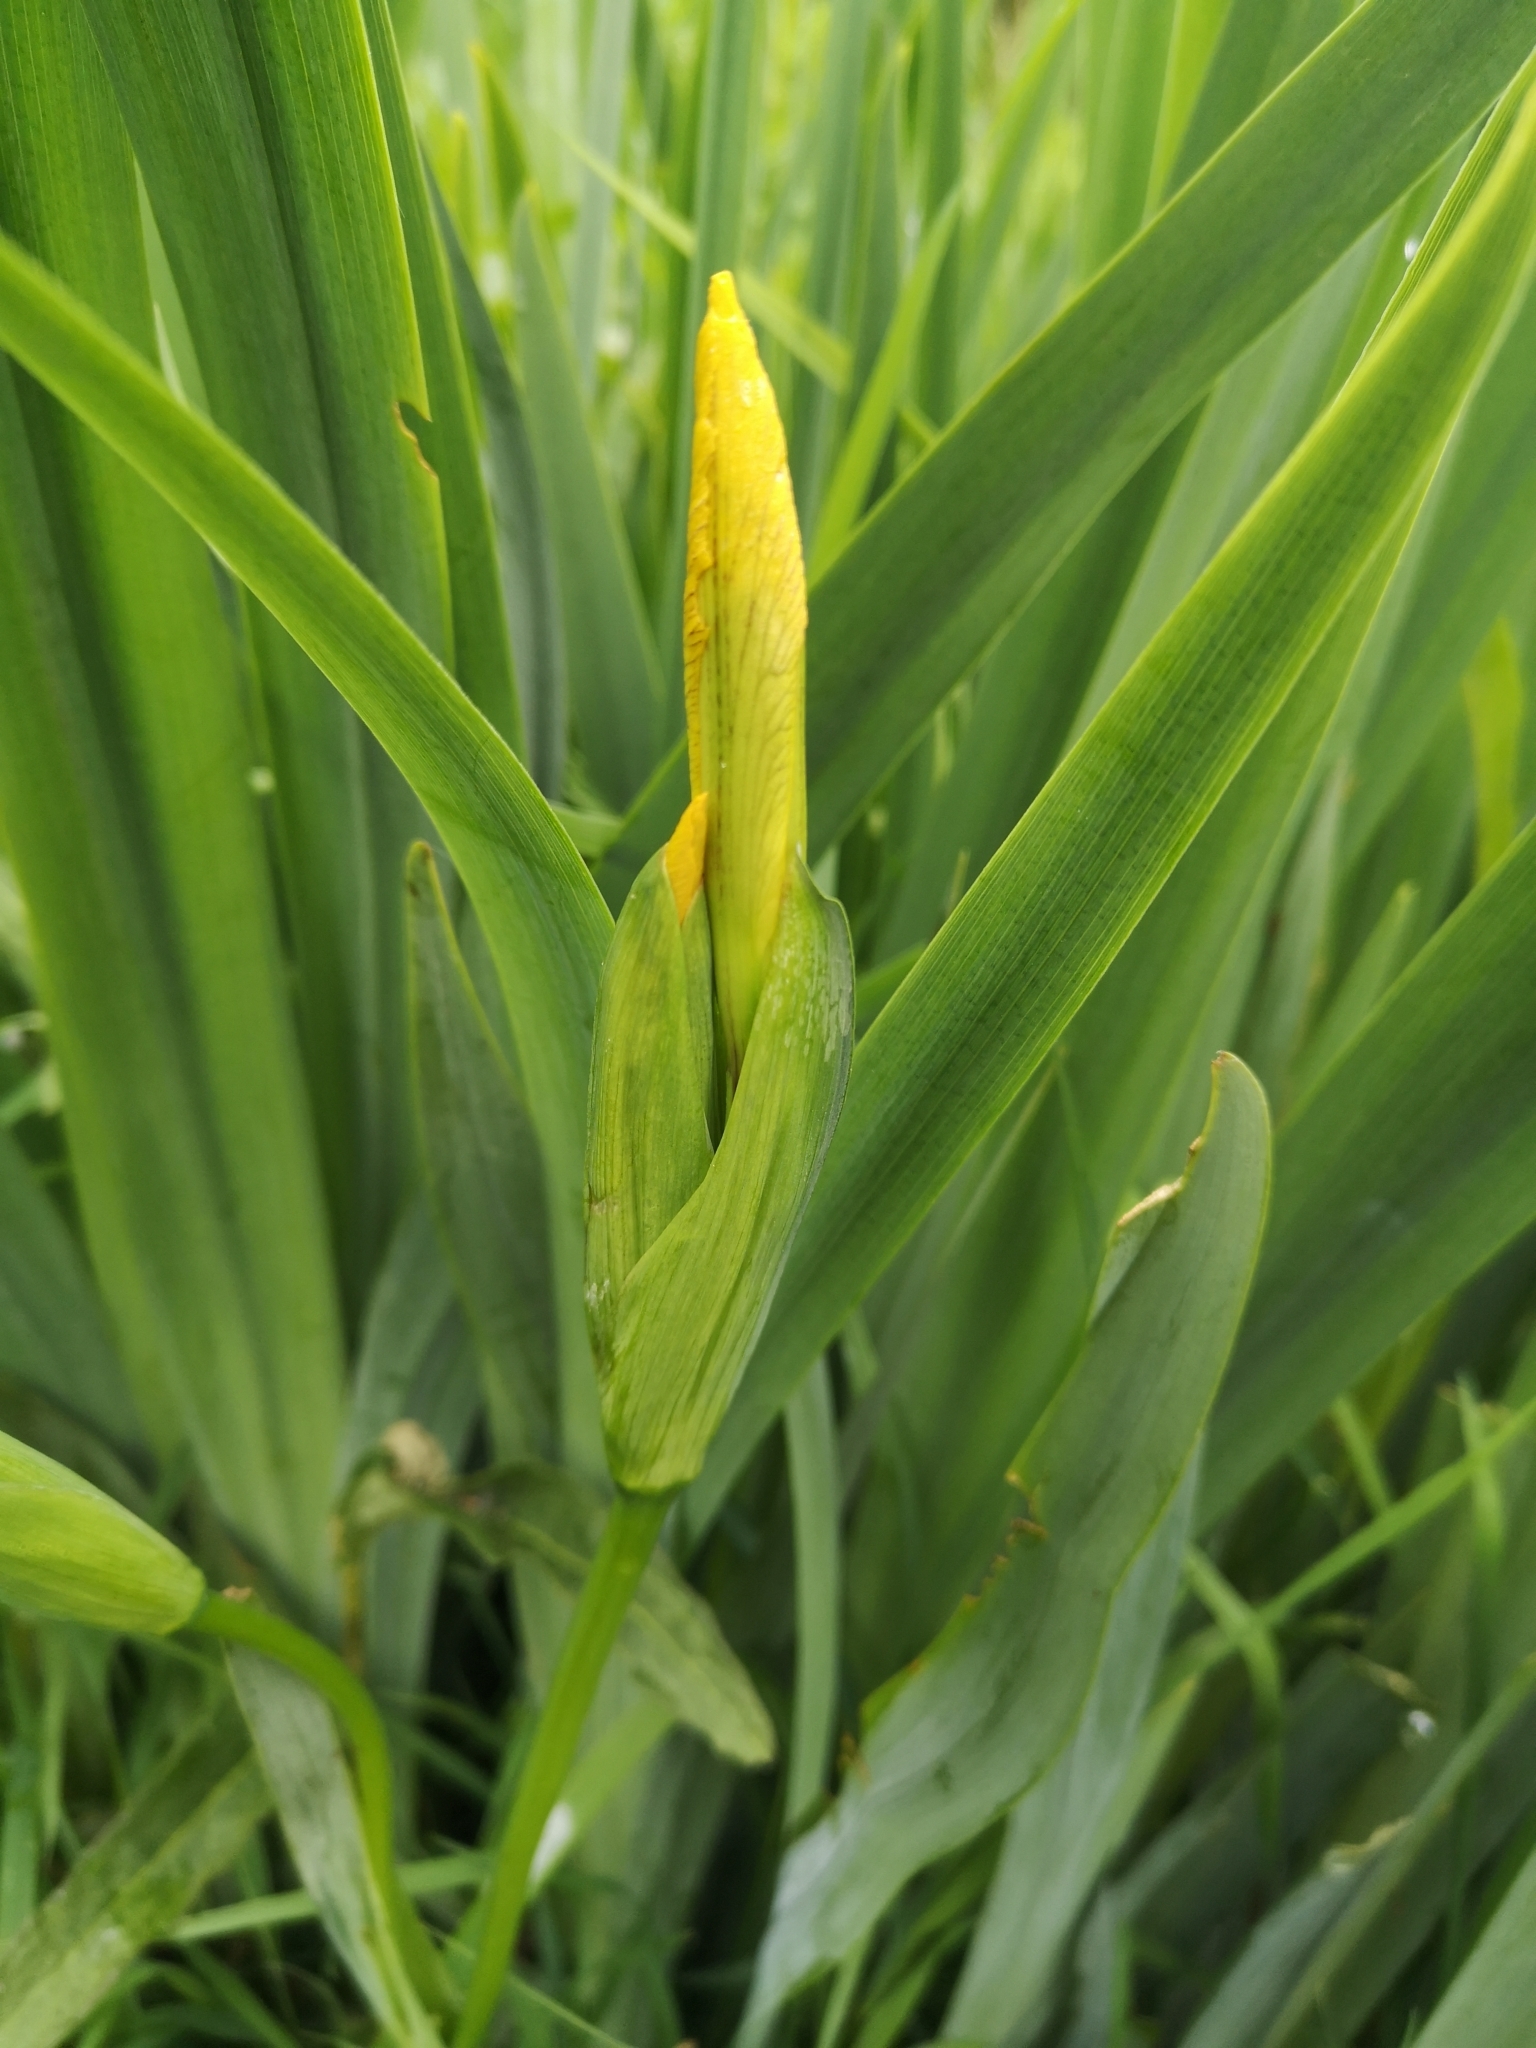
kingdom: Plantae
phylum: Tracheophyta
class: Liliopsida
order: Asparagales
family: Iridaceae
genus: Iris
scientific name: Iris pseudacorus
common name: Yellow flag
